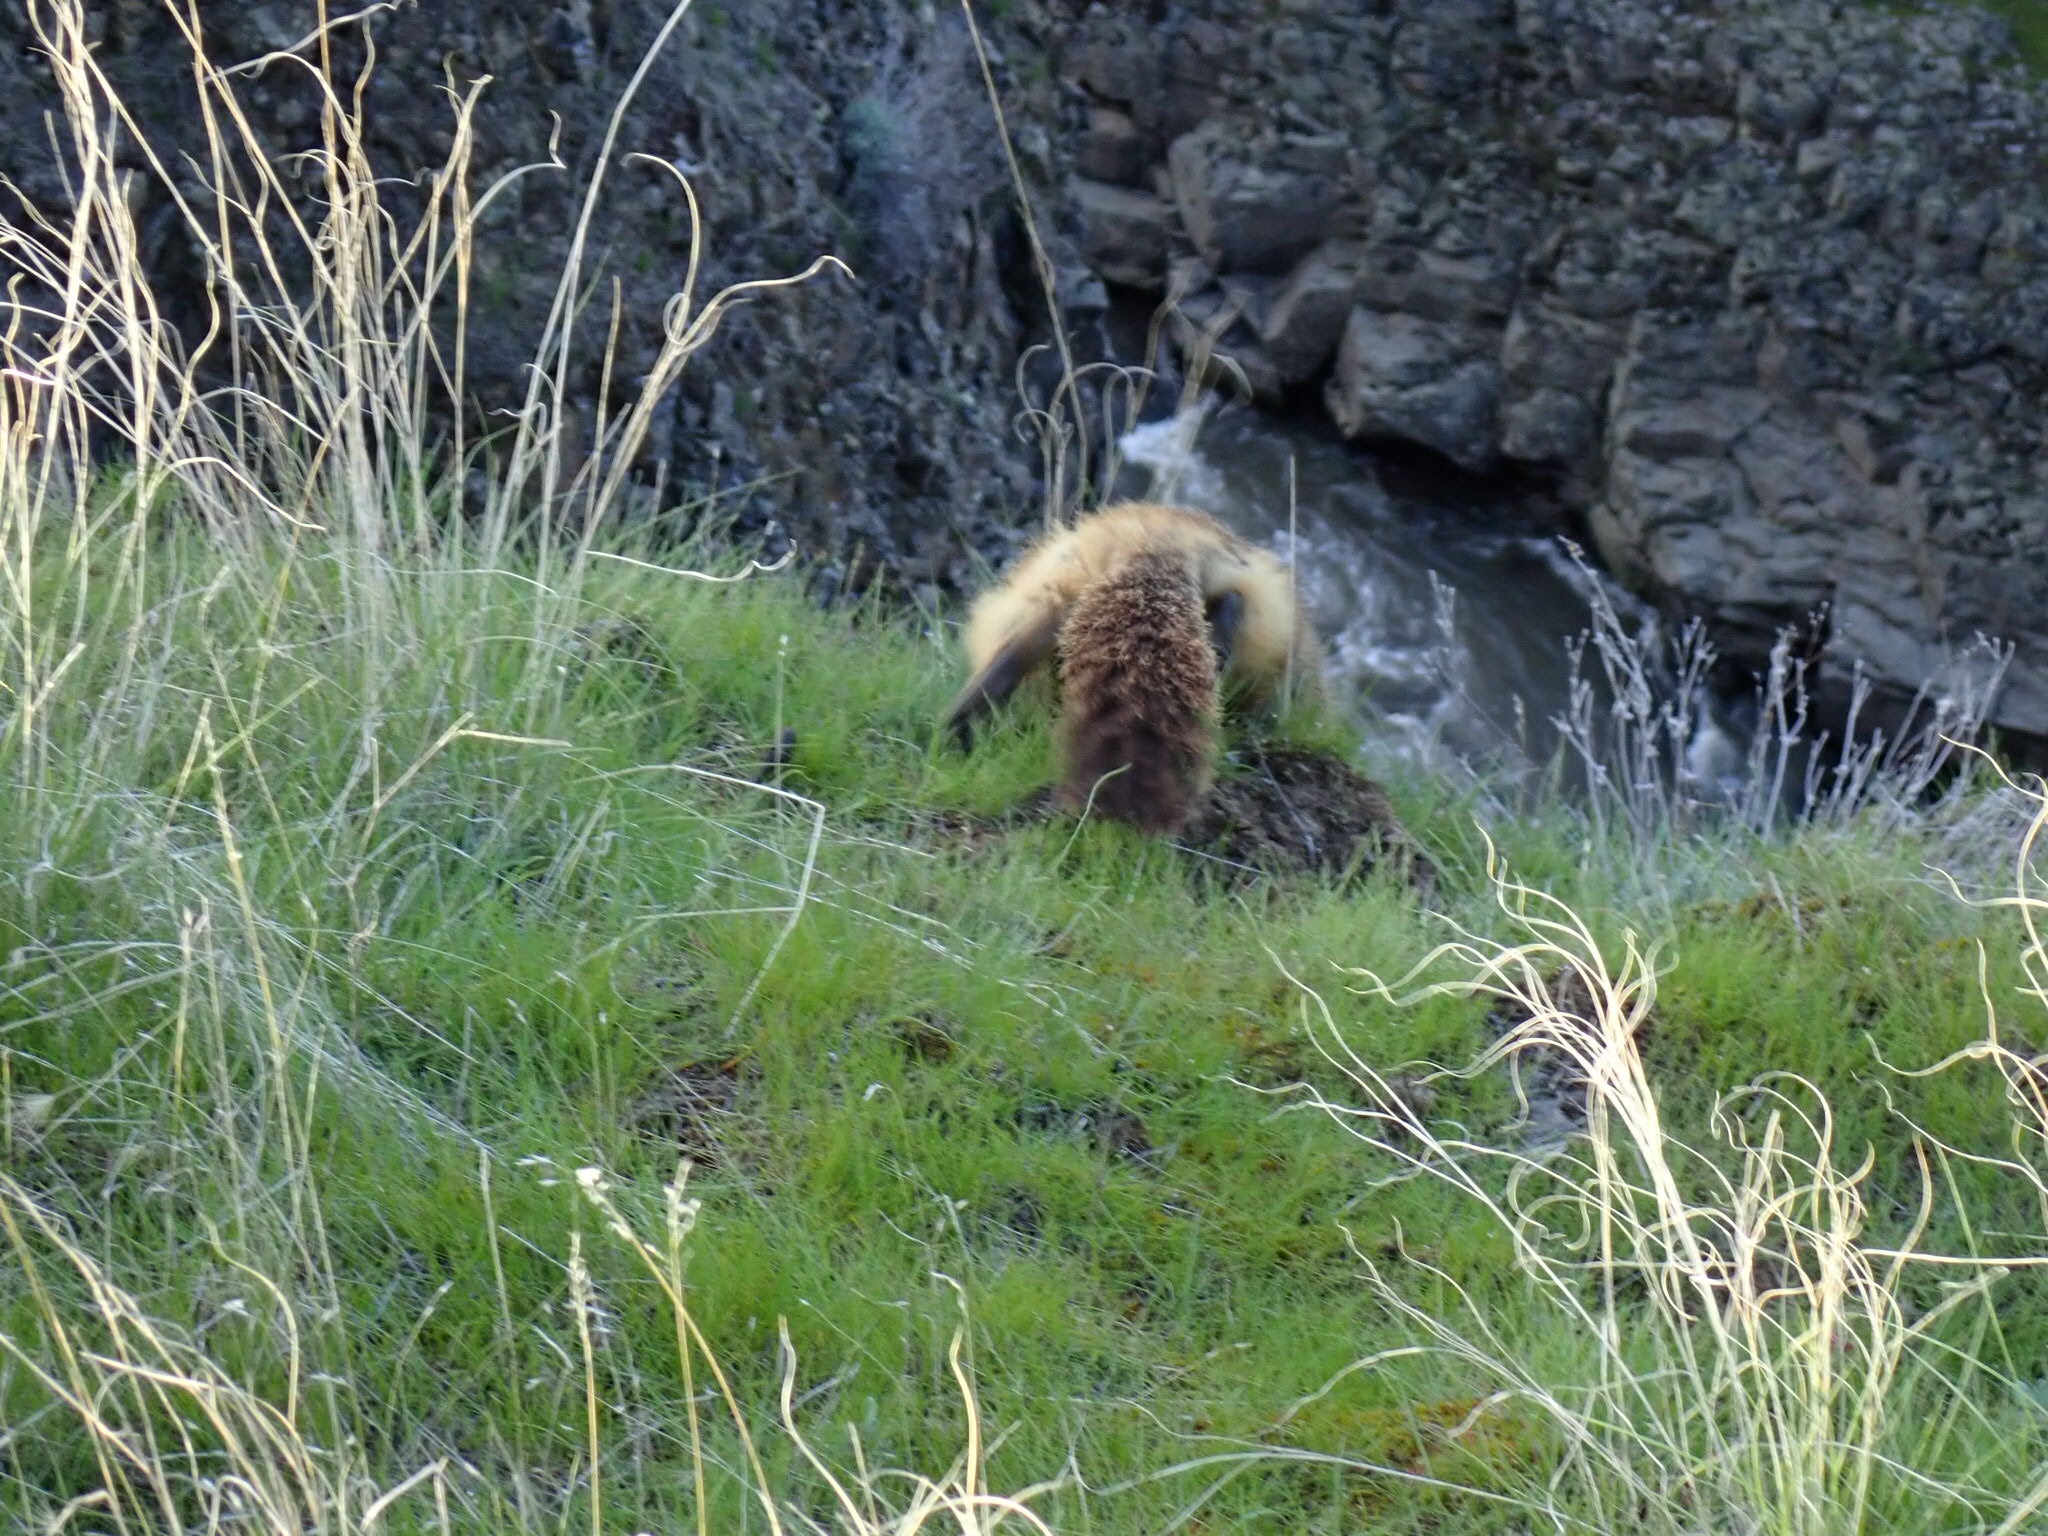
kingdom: Animalia
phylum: Chordata
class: Mammalia
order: Rodentia
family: Sciuridae
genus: Marmota
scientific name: Marmota flaviventris
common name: Yellow-bellied marmot
